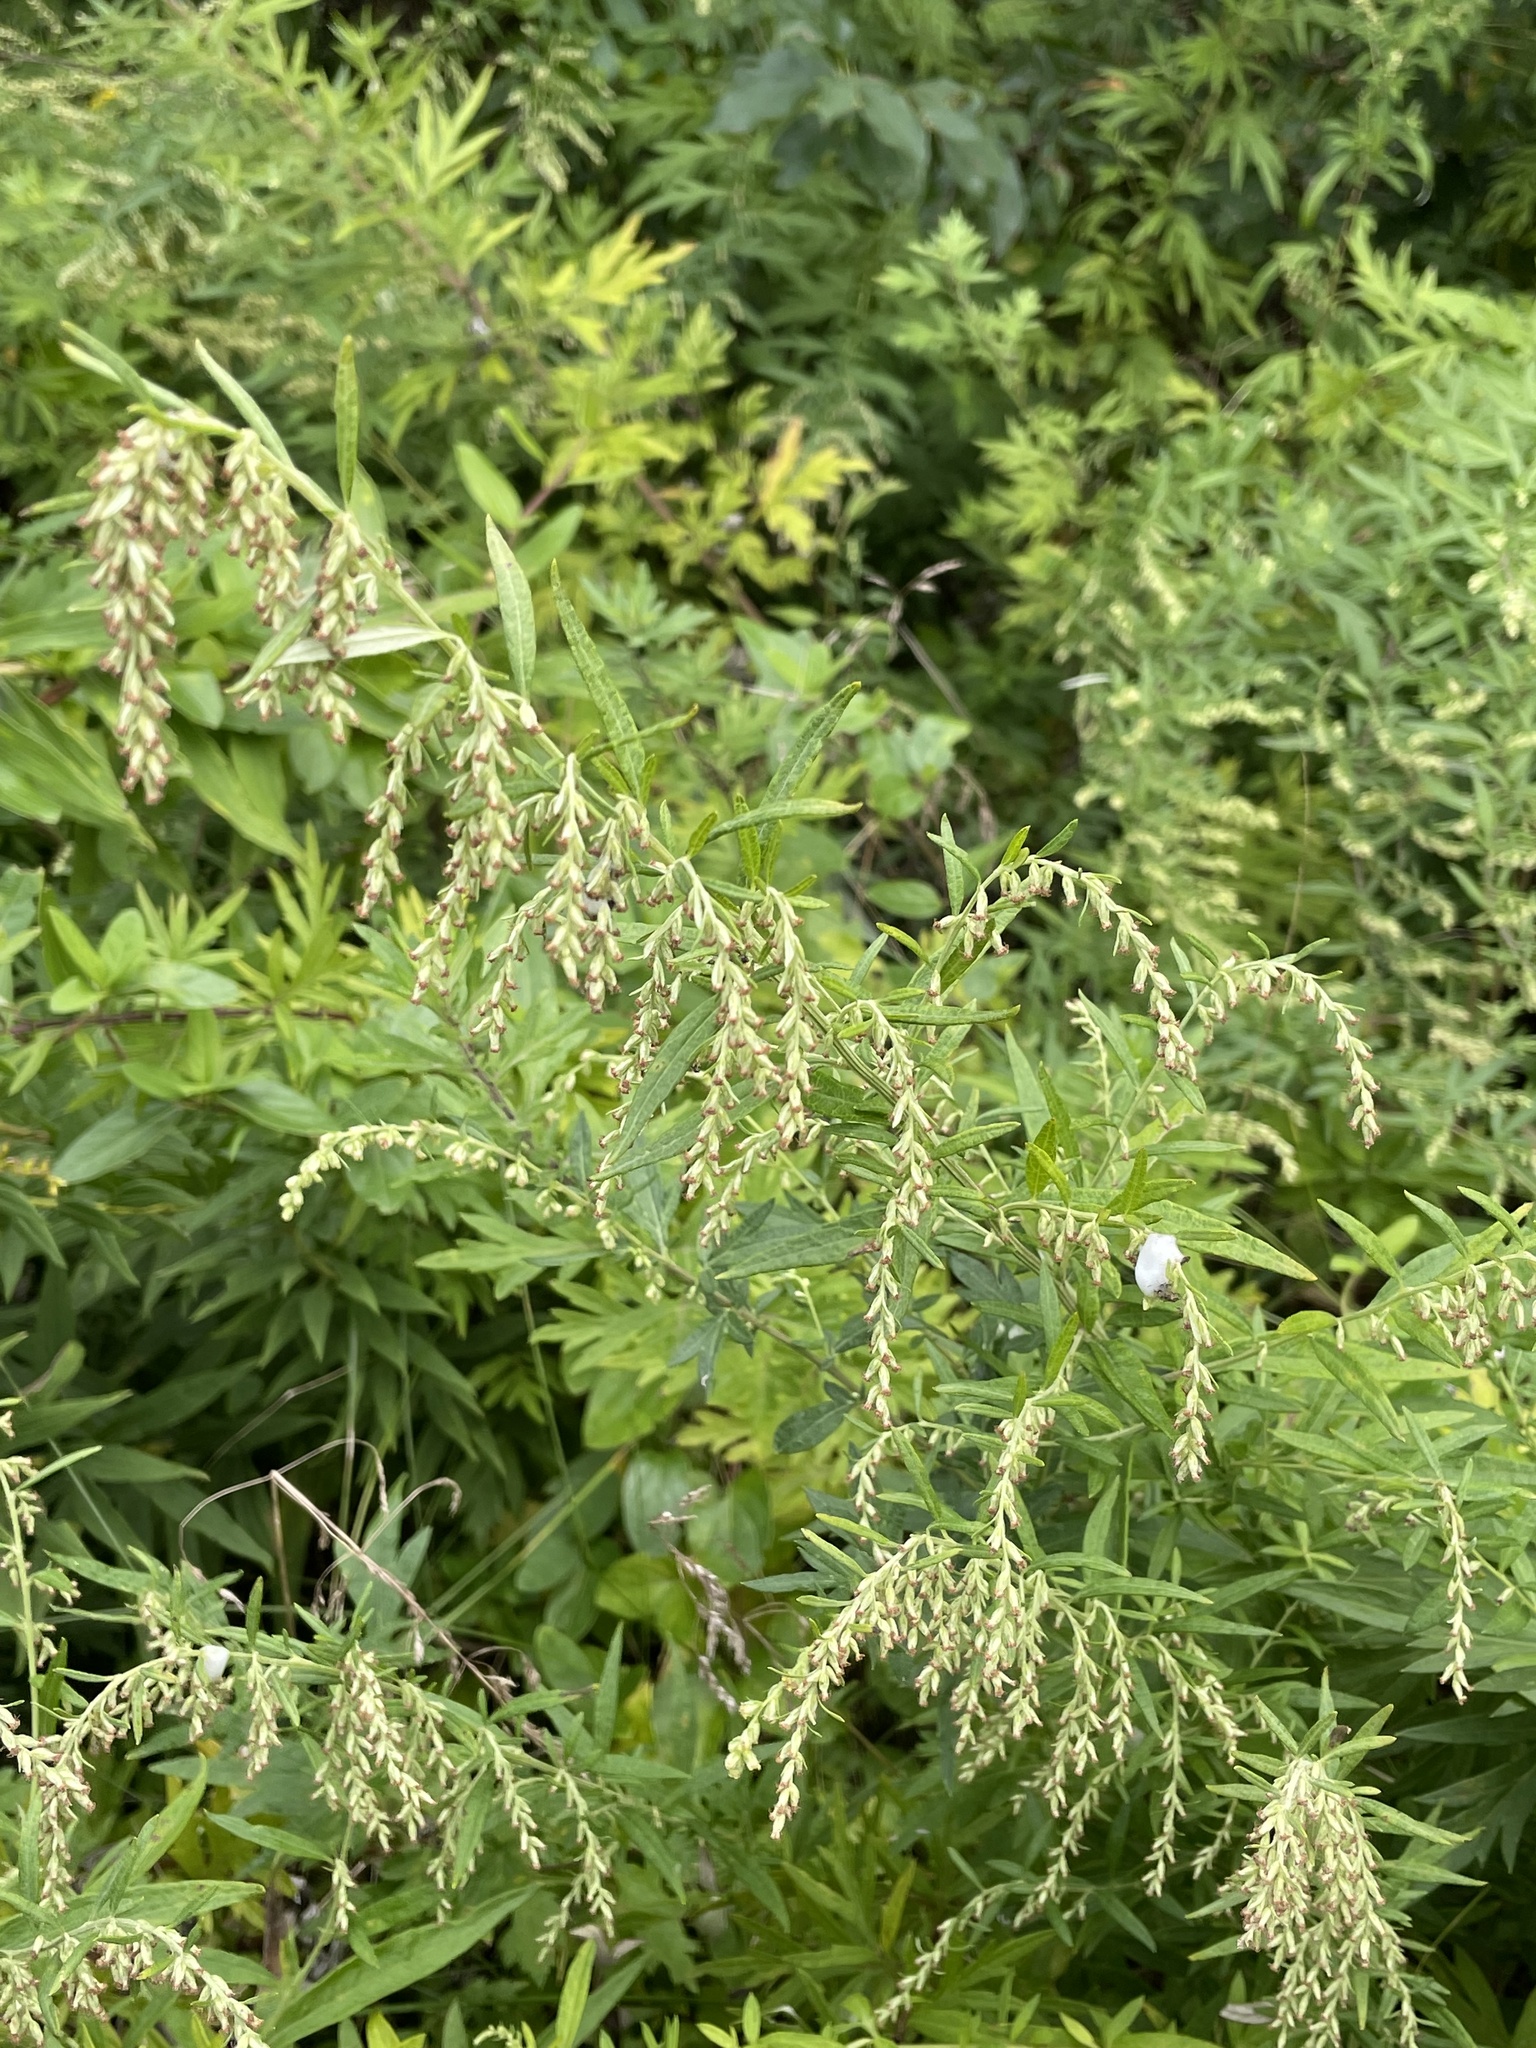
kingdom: Plantae
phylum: Tracheophyta
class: Magnoliopsida
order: Asterales
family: Asteraceae
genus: Artemisia
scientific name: Artemisia vulgaris
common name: Mugwort
